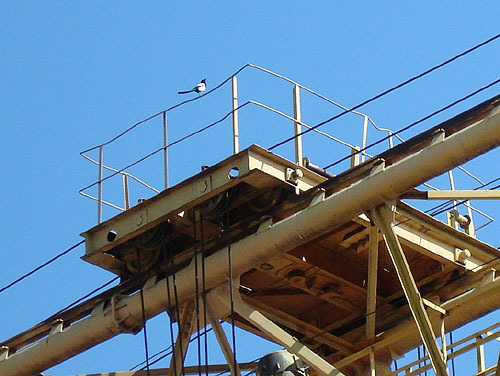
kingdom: Animalia
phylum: Chordata
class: Aves
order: Passeriformes
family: Corvidae
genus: Pica
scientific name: Pica pica
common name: Eurasian magpie
